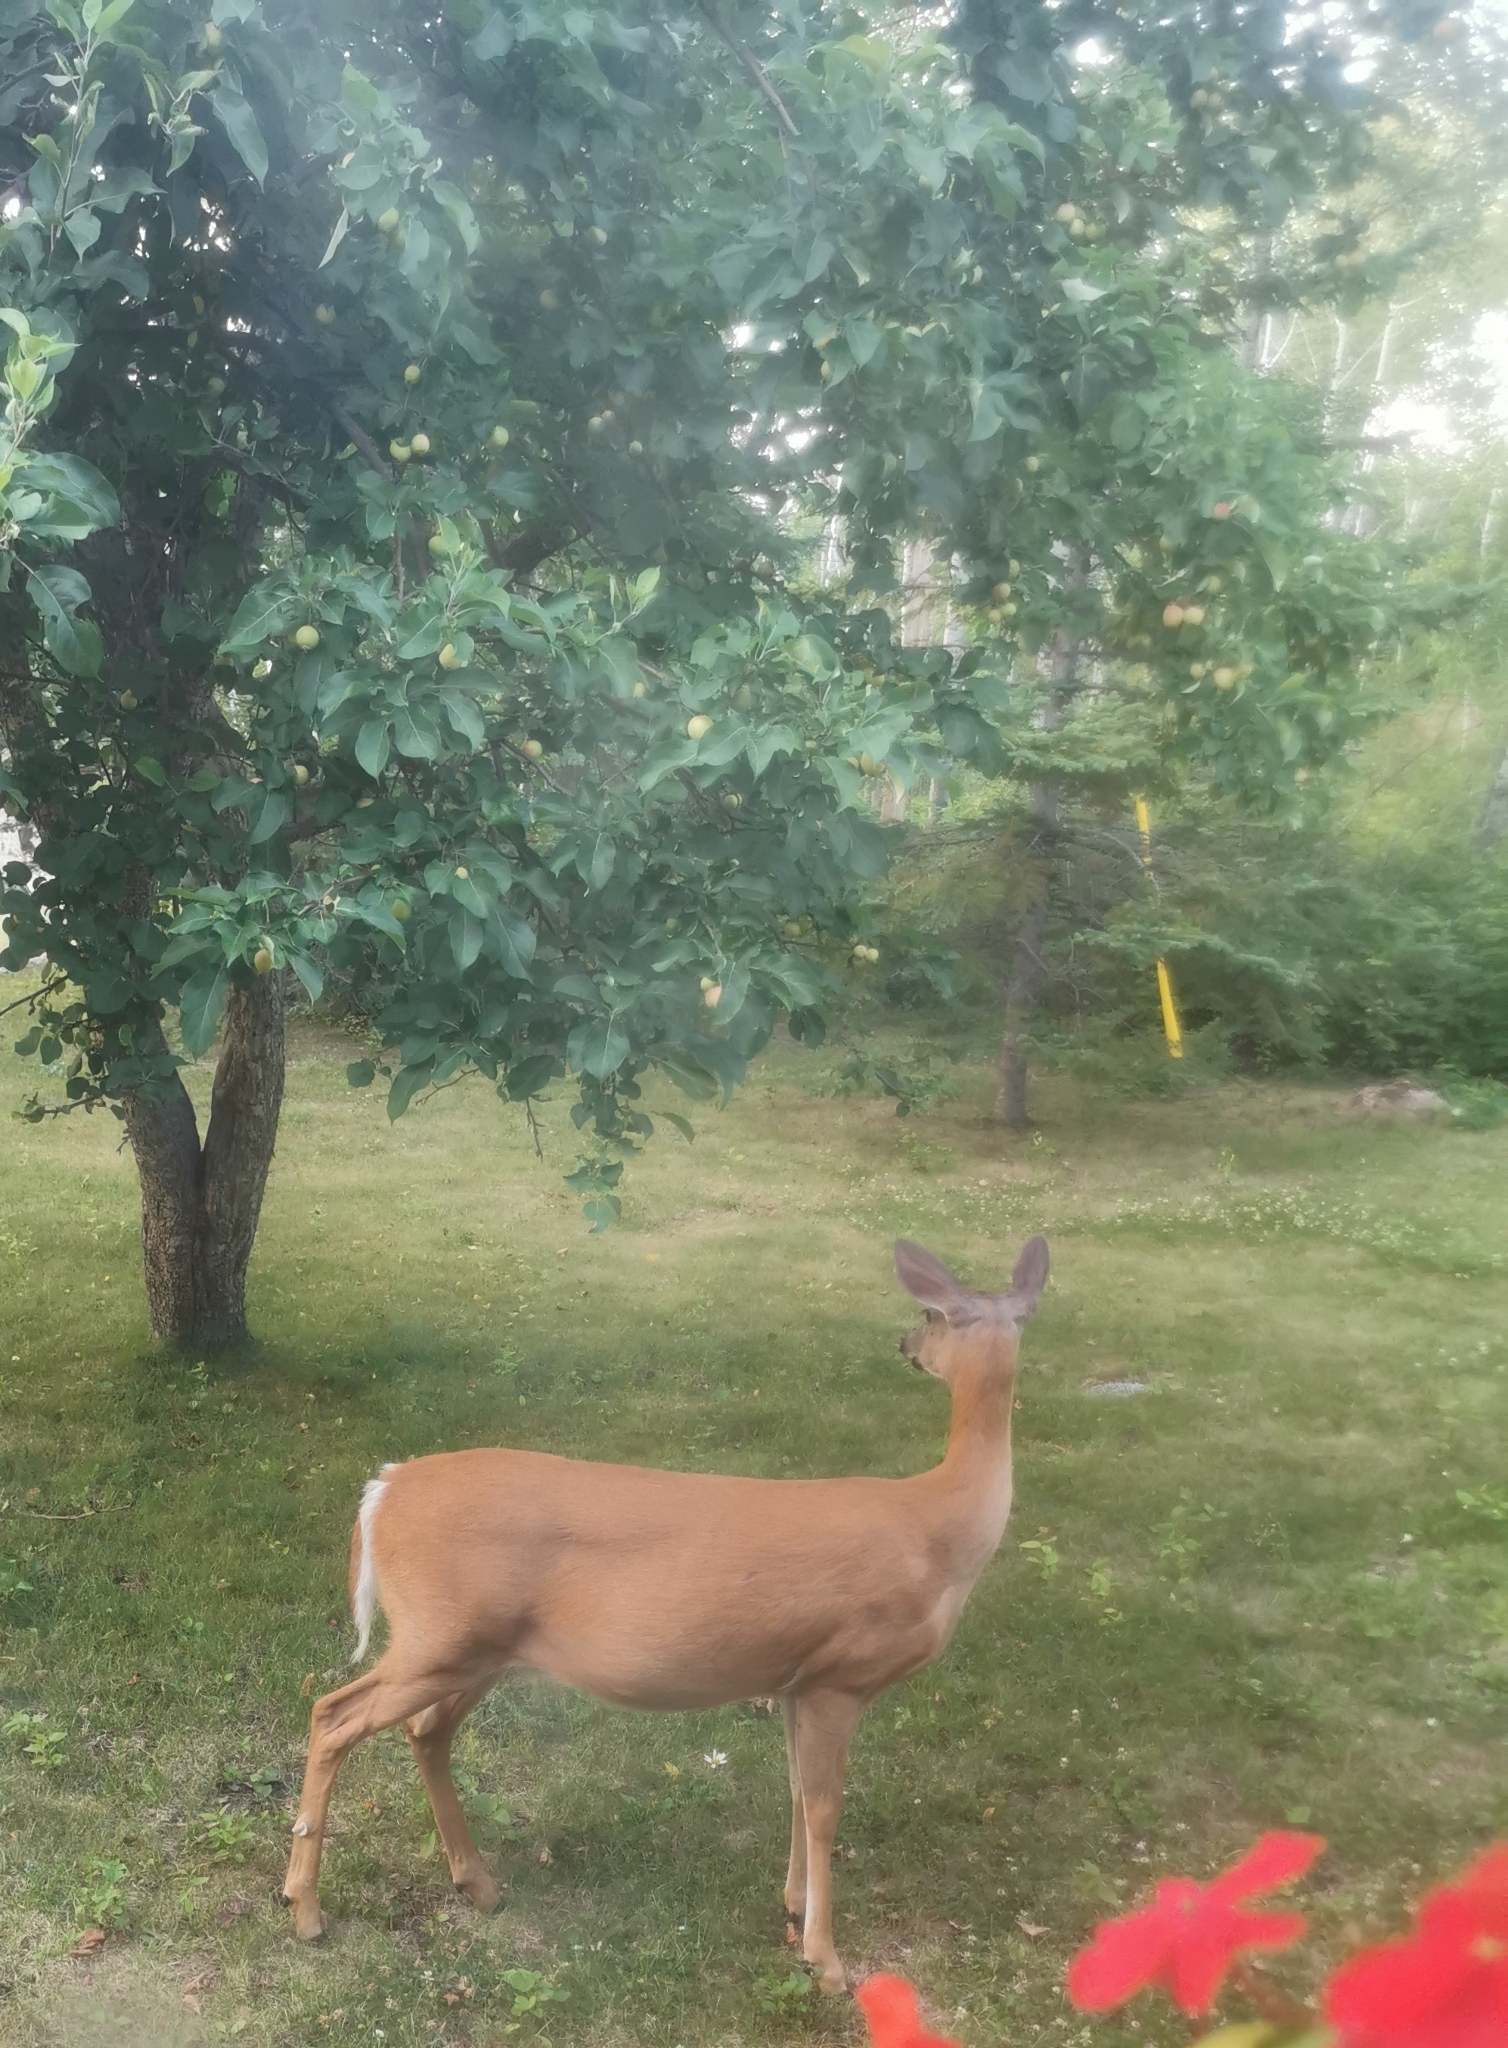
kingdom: Animalia
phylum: Chordata
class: Mammalia
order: Artiodactyla
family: Cervidae
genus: Odocoileus
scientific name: Odocoileus virginianus
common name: White-tailed deer
